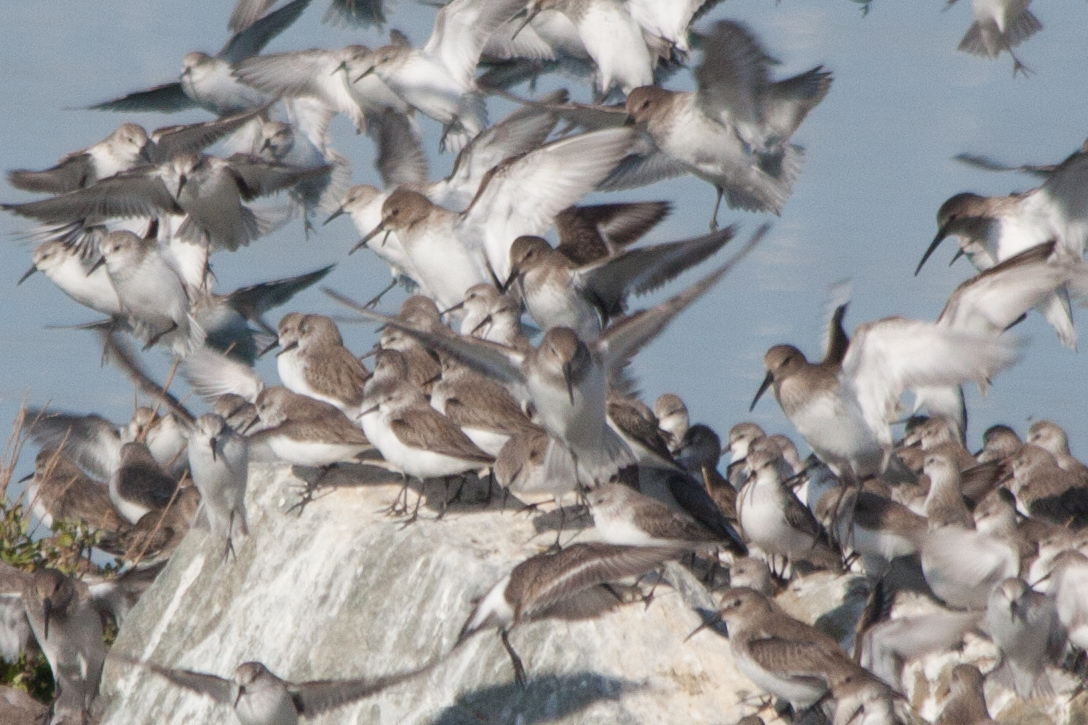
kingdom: Animalia
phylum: Chordata
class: Aves
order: Charadriiformes
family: Scolopacidae
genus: Calidris
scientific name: Calidris mauri
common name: Western sandpiper
